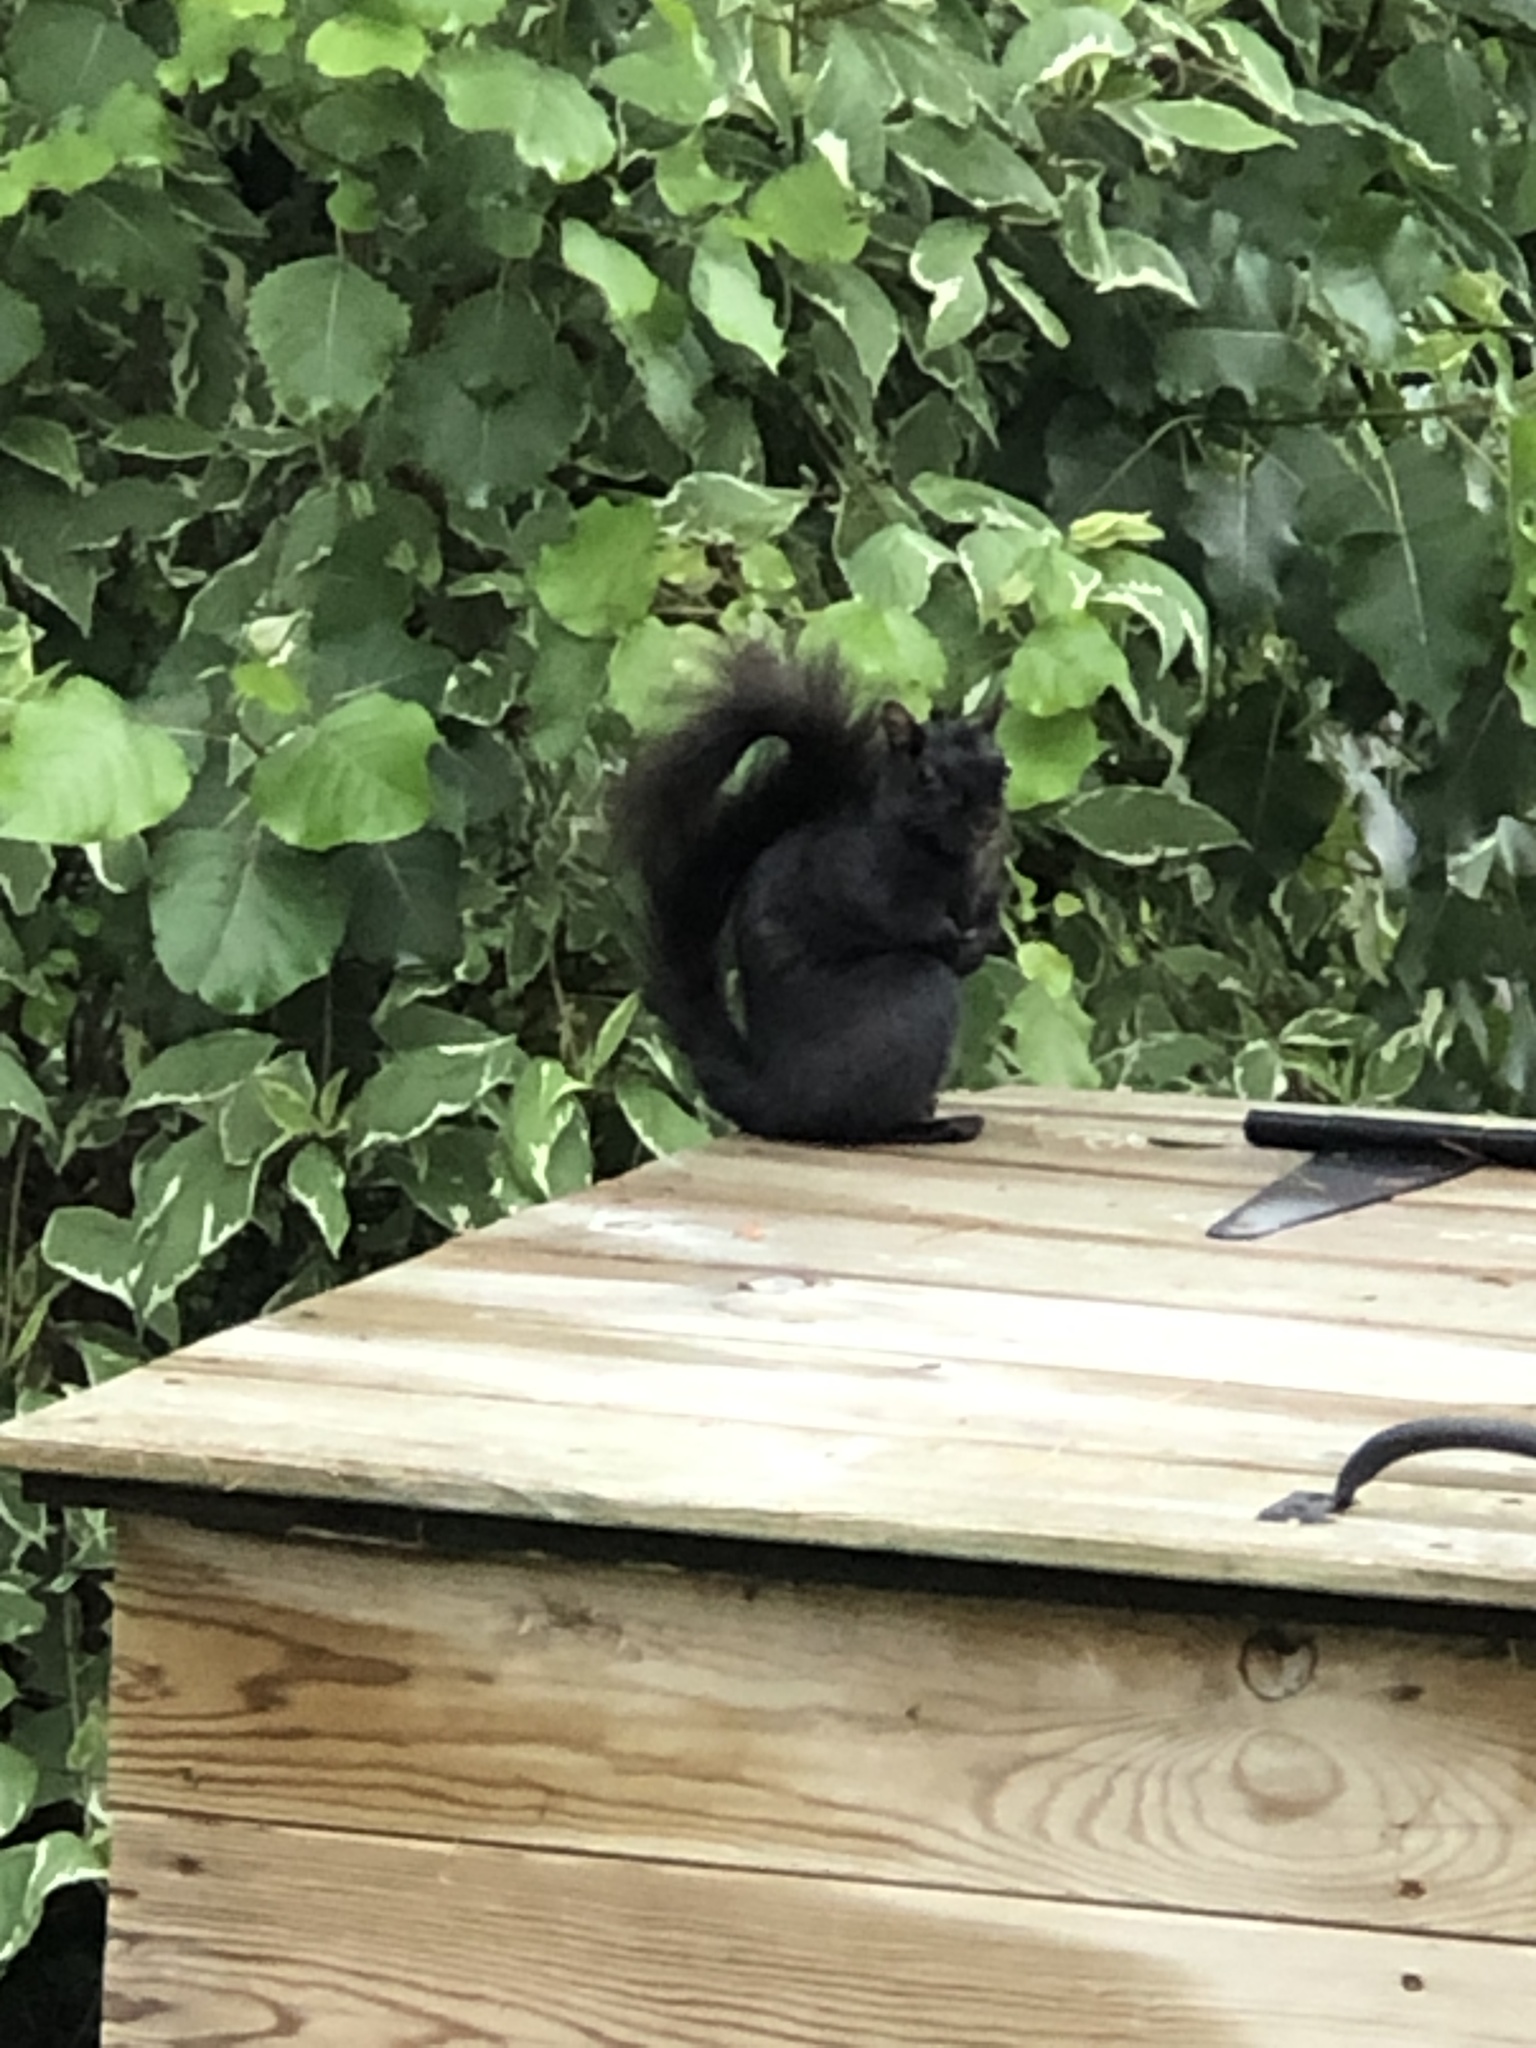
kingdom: Animalia
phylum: Chordata
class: Mammalia
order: Rodentia
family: Sciuridae
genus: Sciurus
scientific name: Sciurus carolinensis
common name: Eastern gray squirrel
